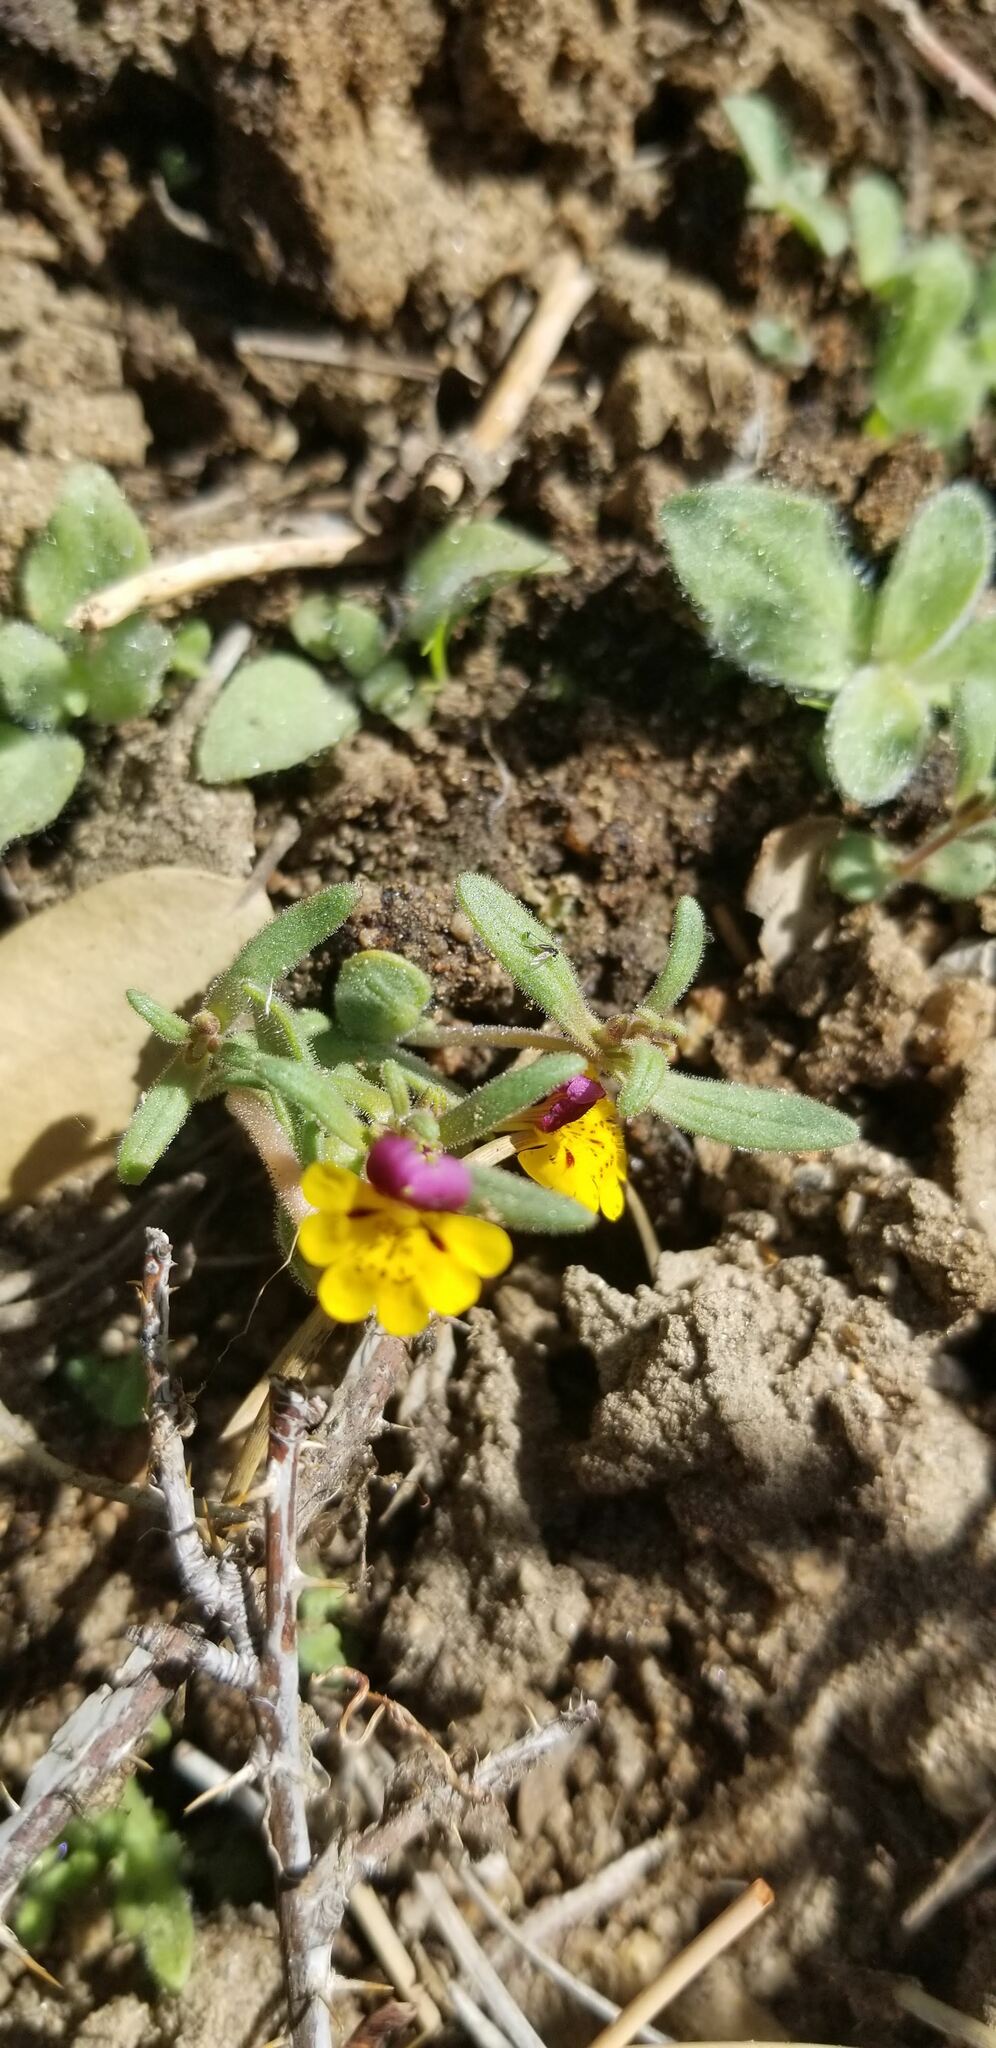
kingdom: Plantae
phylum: Tracheophyta
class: Magnoliopsida
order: Lamiales
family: Phrymaceae
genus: Erythranthe
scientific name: Erythranthe barbata
